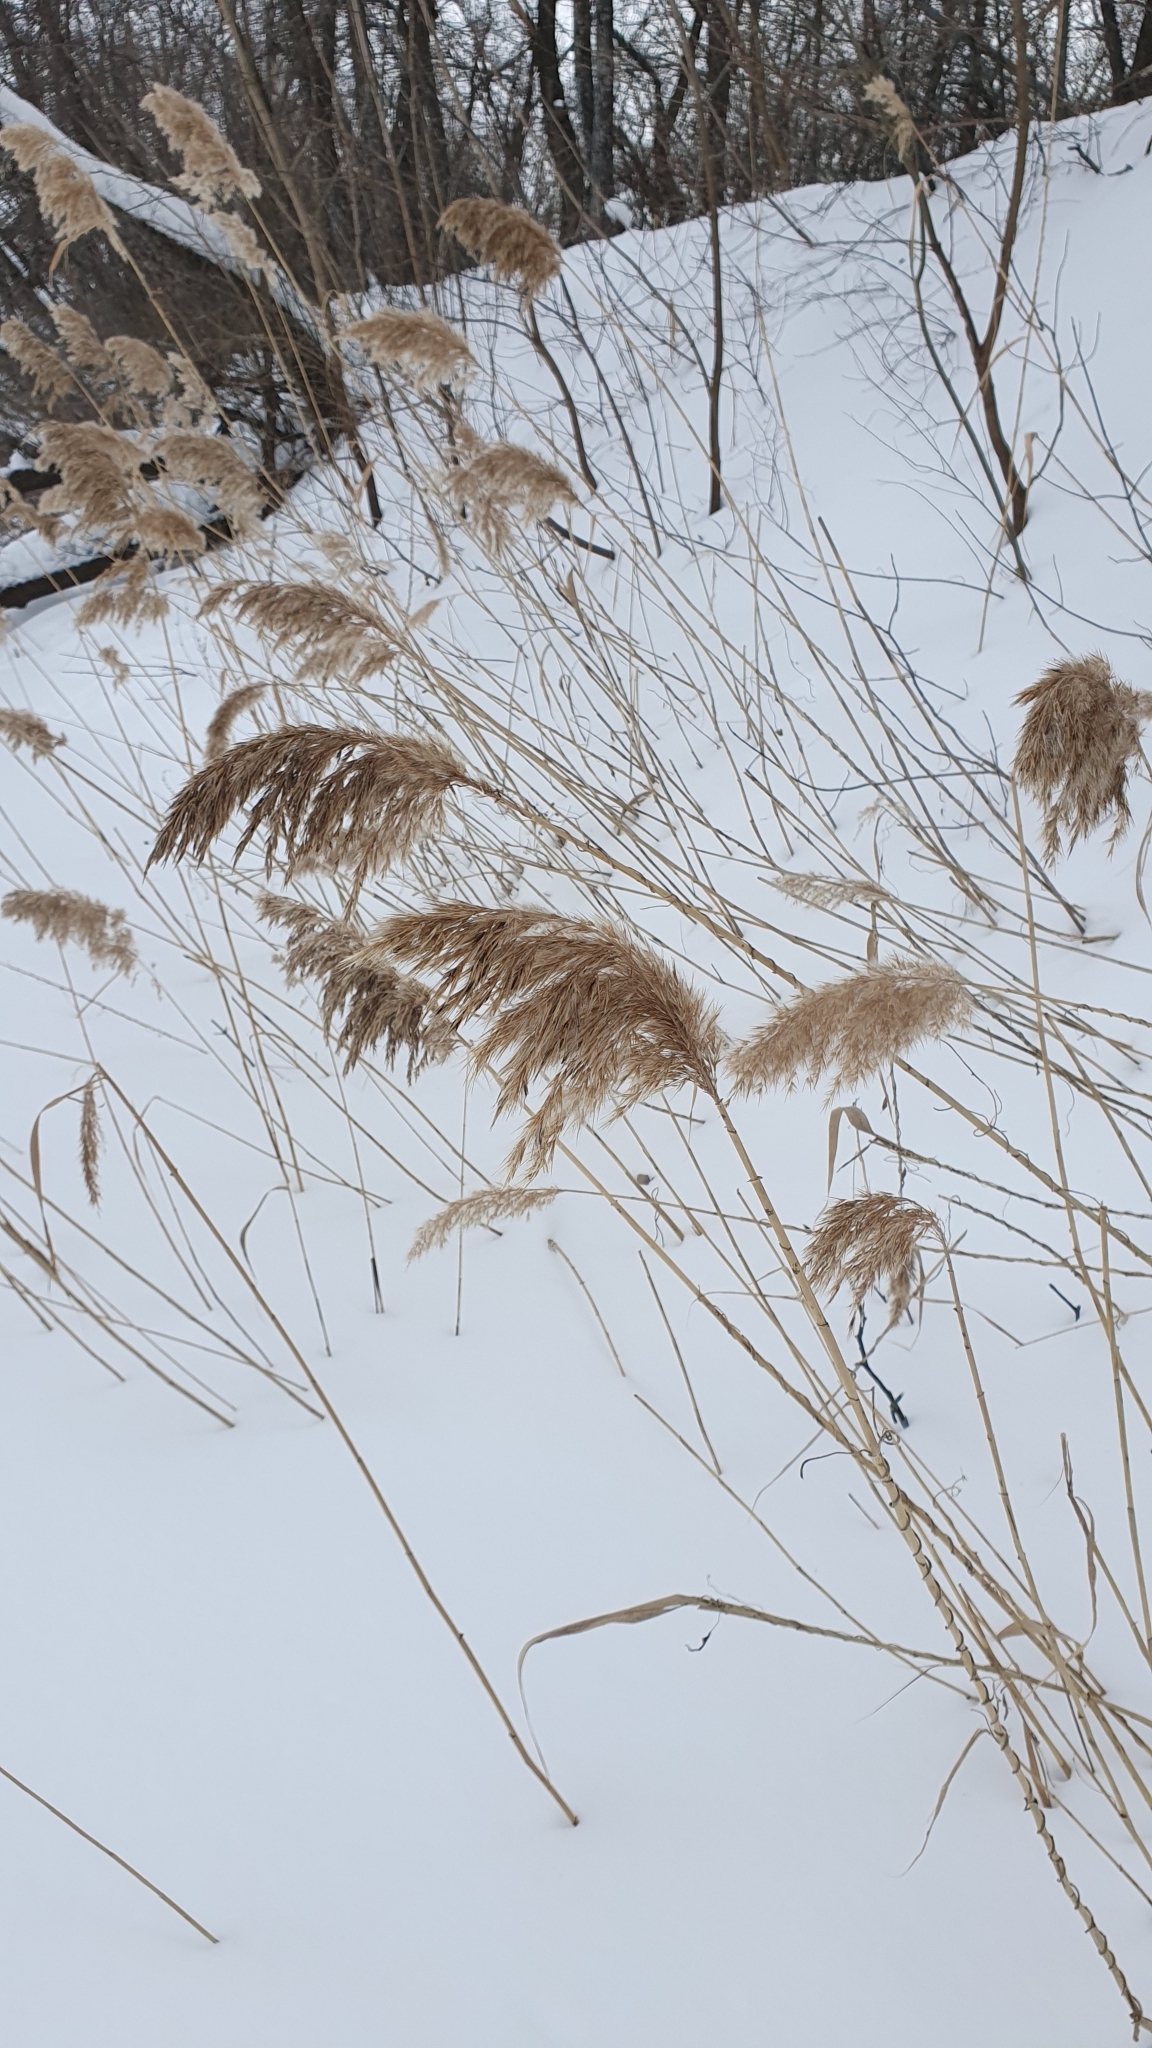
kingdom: Plantae
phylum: Tracheophyta
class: Liliopsida
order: Poales
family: Poaceae
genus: Phragmites
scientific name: Phragmites australis
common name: Common reed
